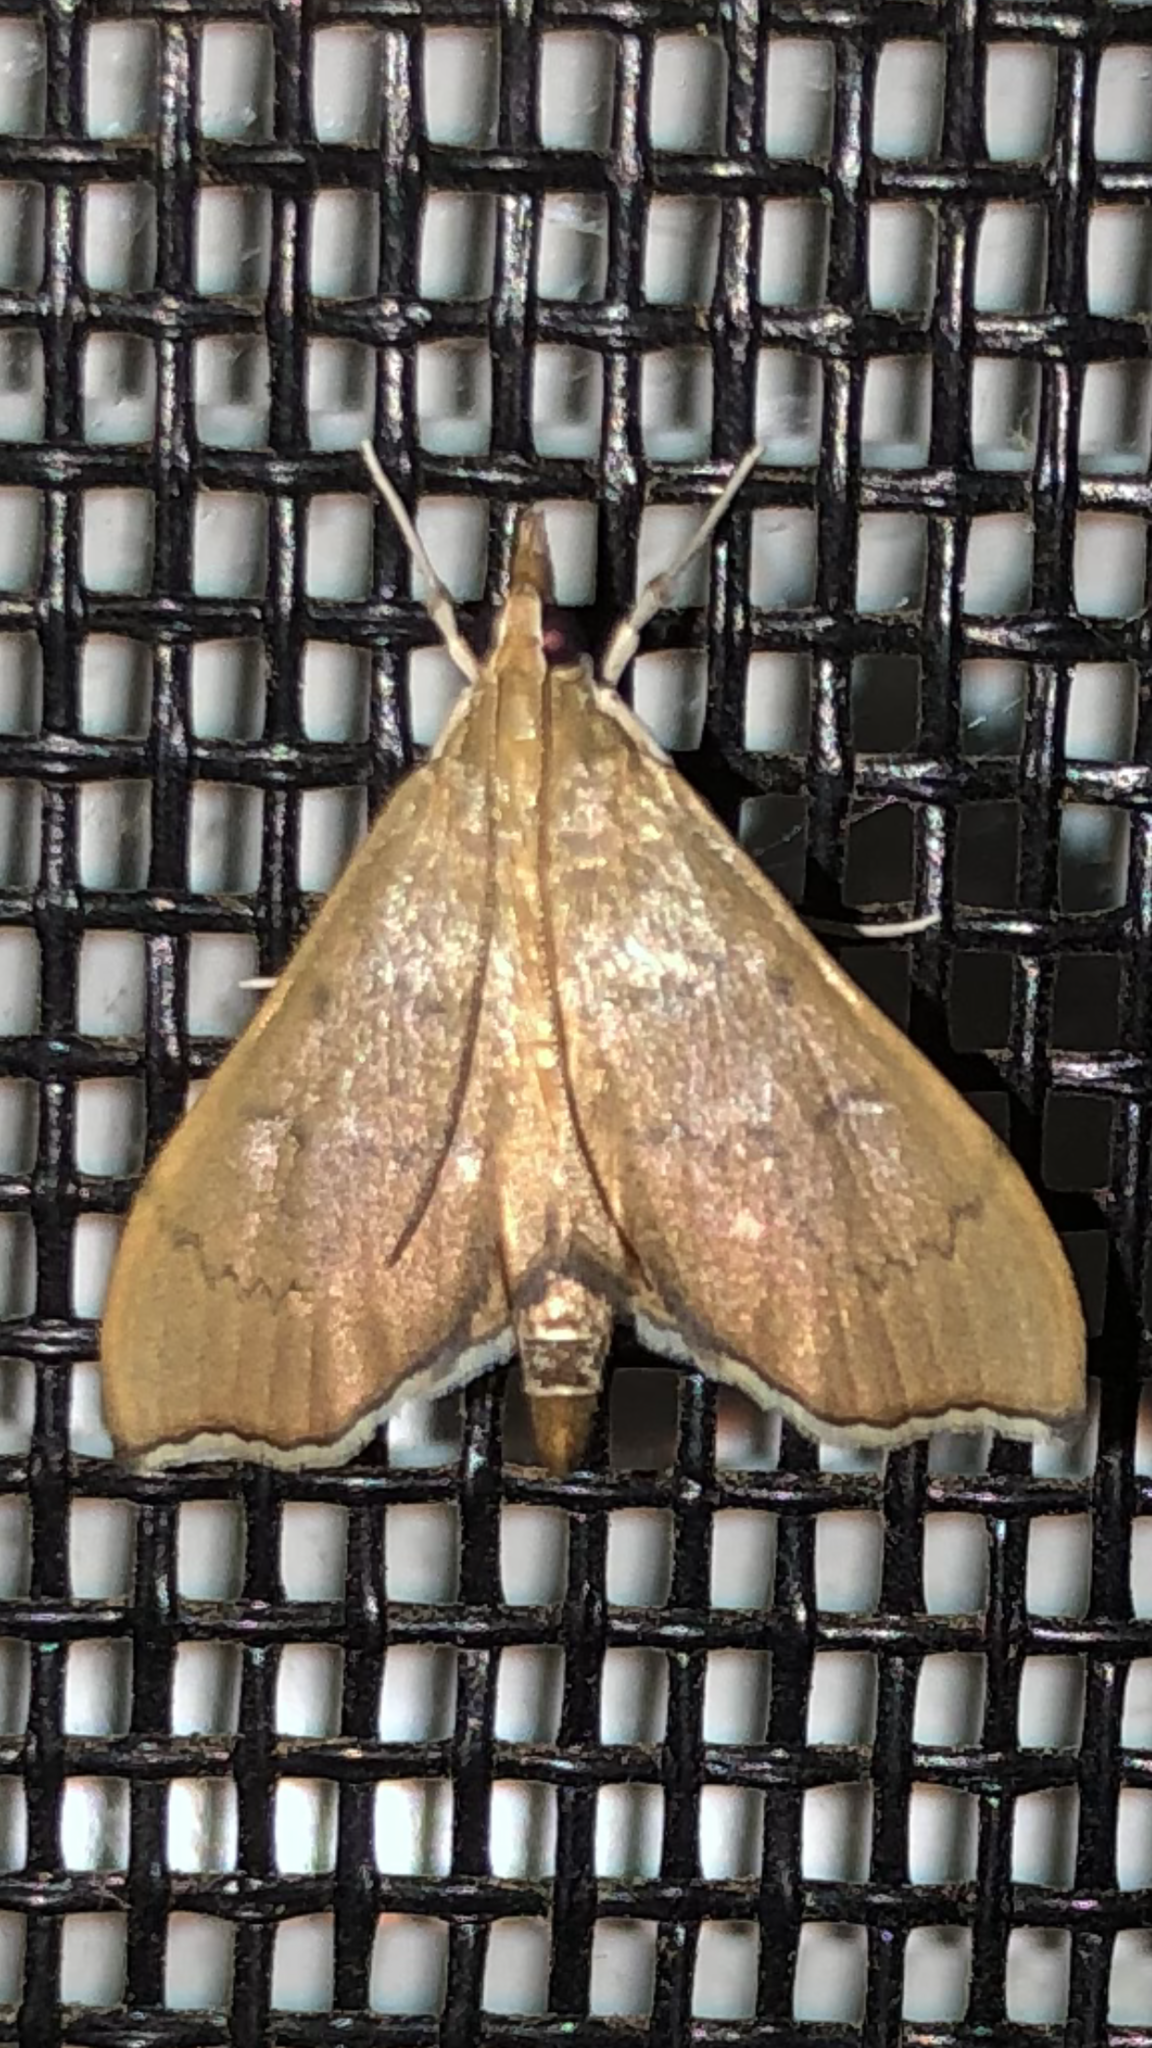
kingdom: Animalia
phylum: Arthropoda
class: Insecta
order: Lepidoptera
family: Crambidae
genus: Sericoplaga
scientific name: Sericoplaga externalis
